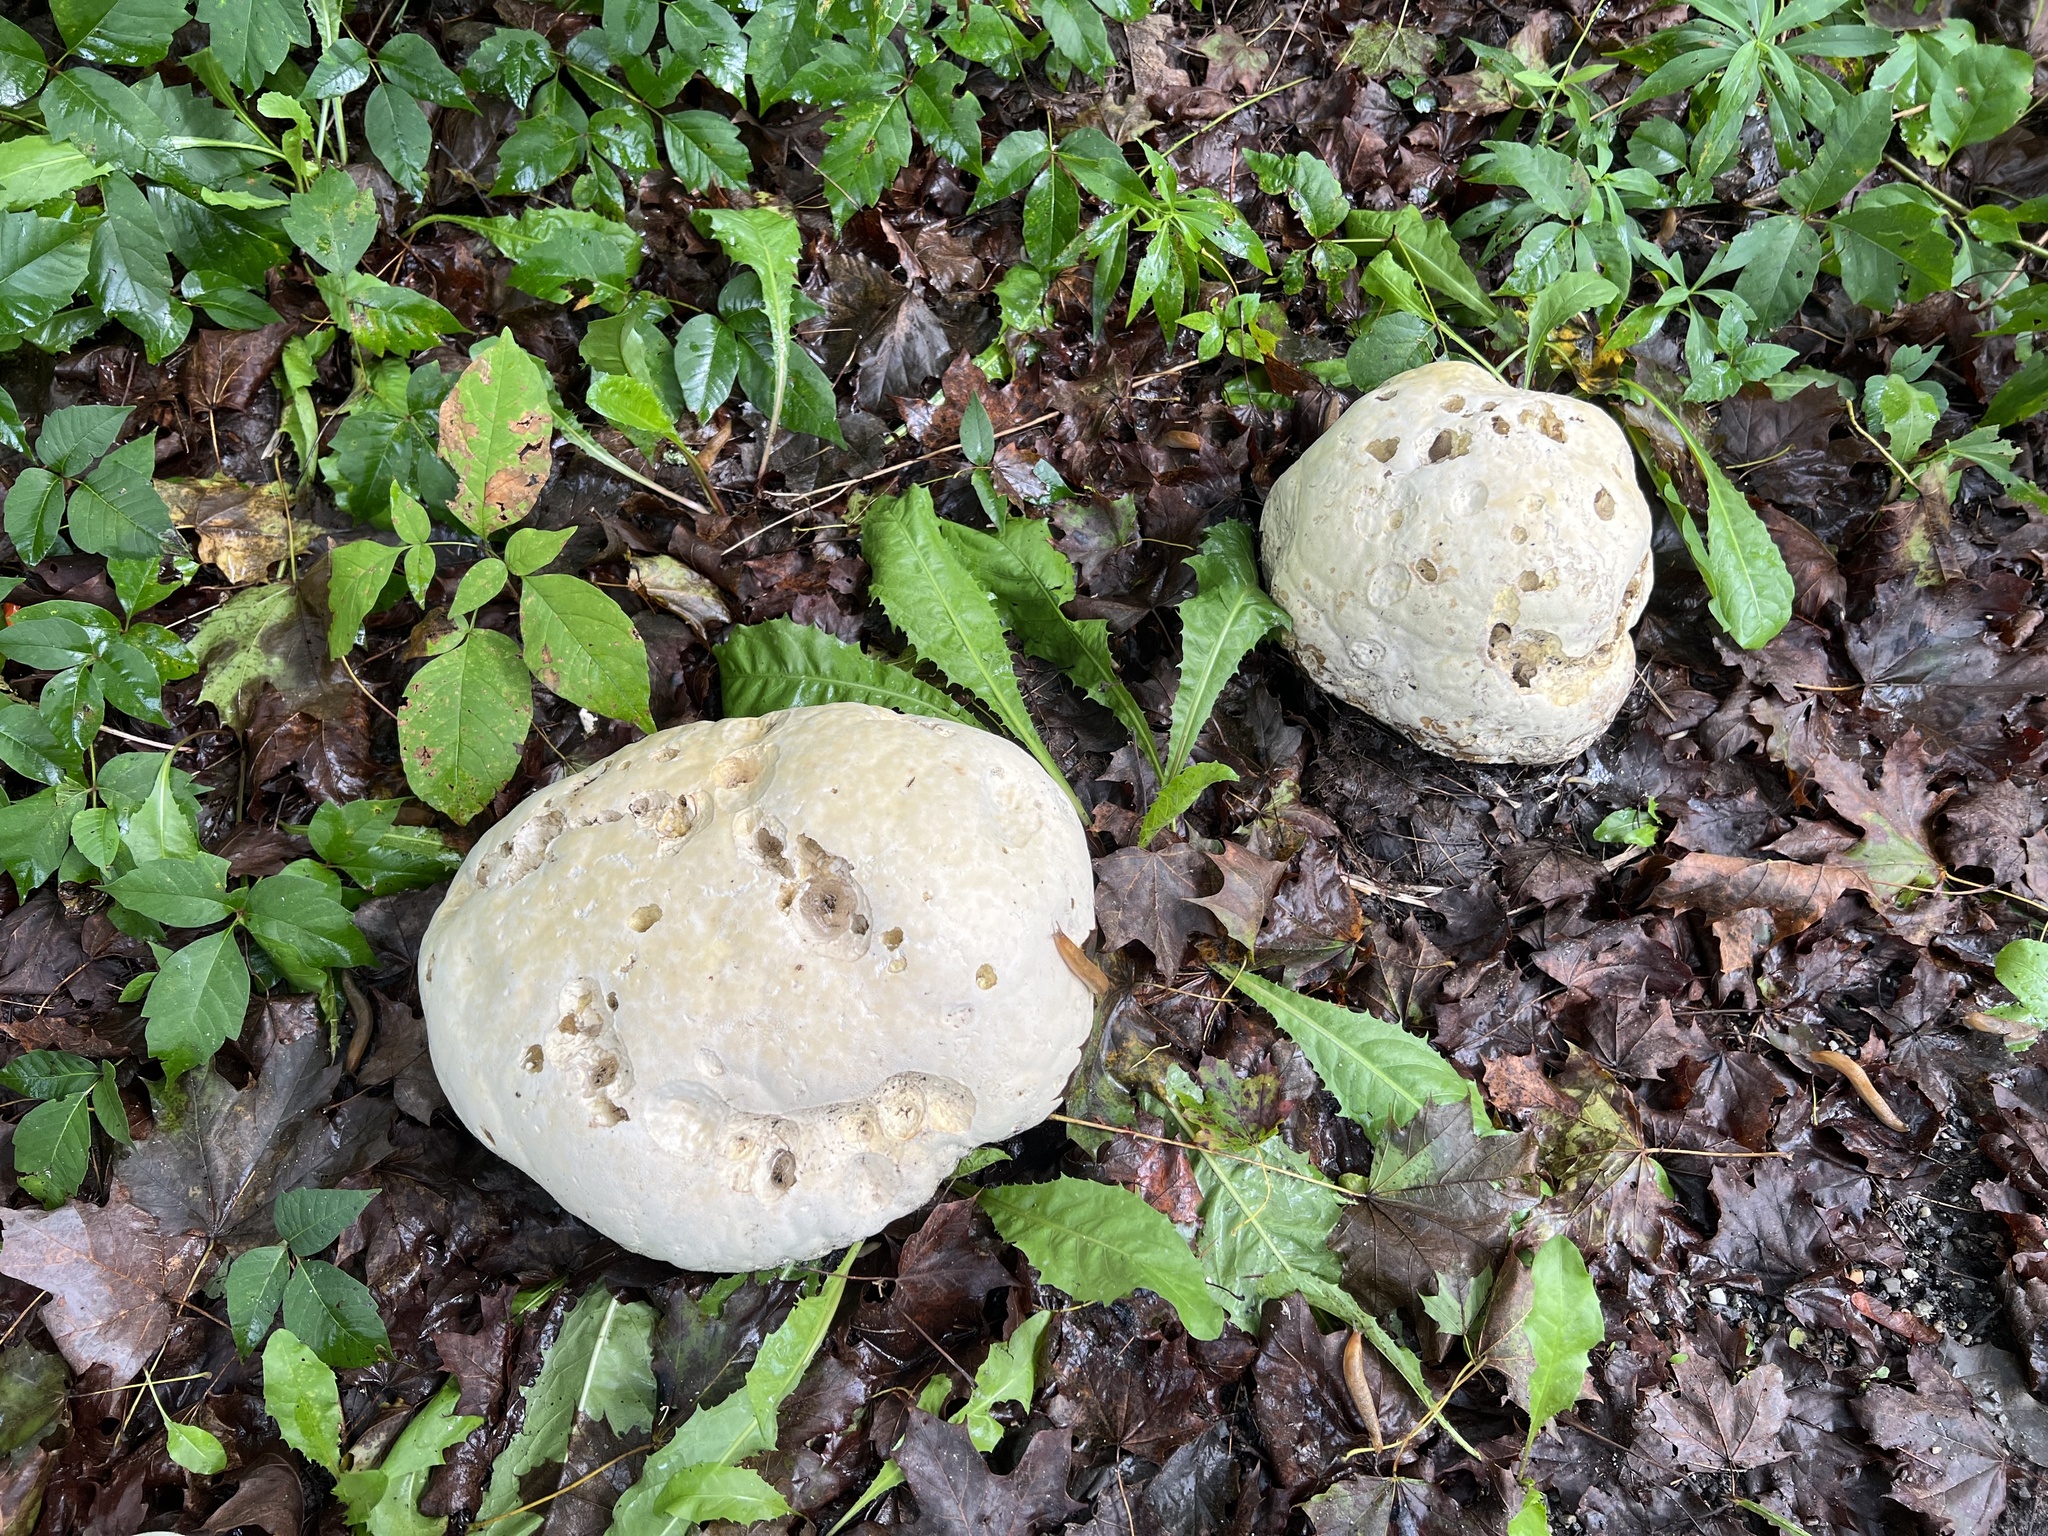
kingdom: Fungi
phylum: Basidiomycota
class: Agaricomycetes
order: Agaricales
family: Lycoperdaceae
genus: Calvatia
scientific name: Calvatia gigantea
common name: Giant puffball
